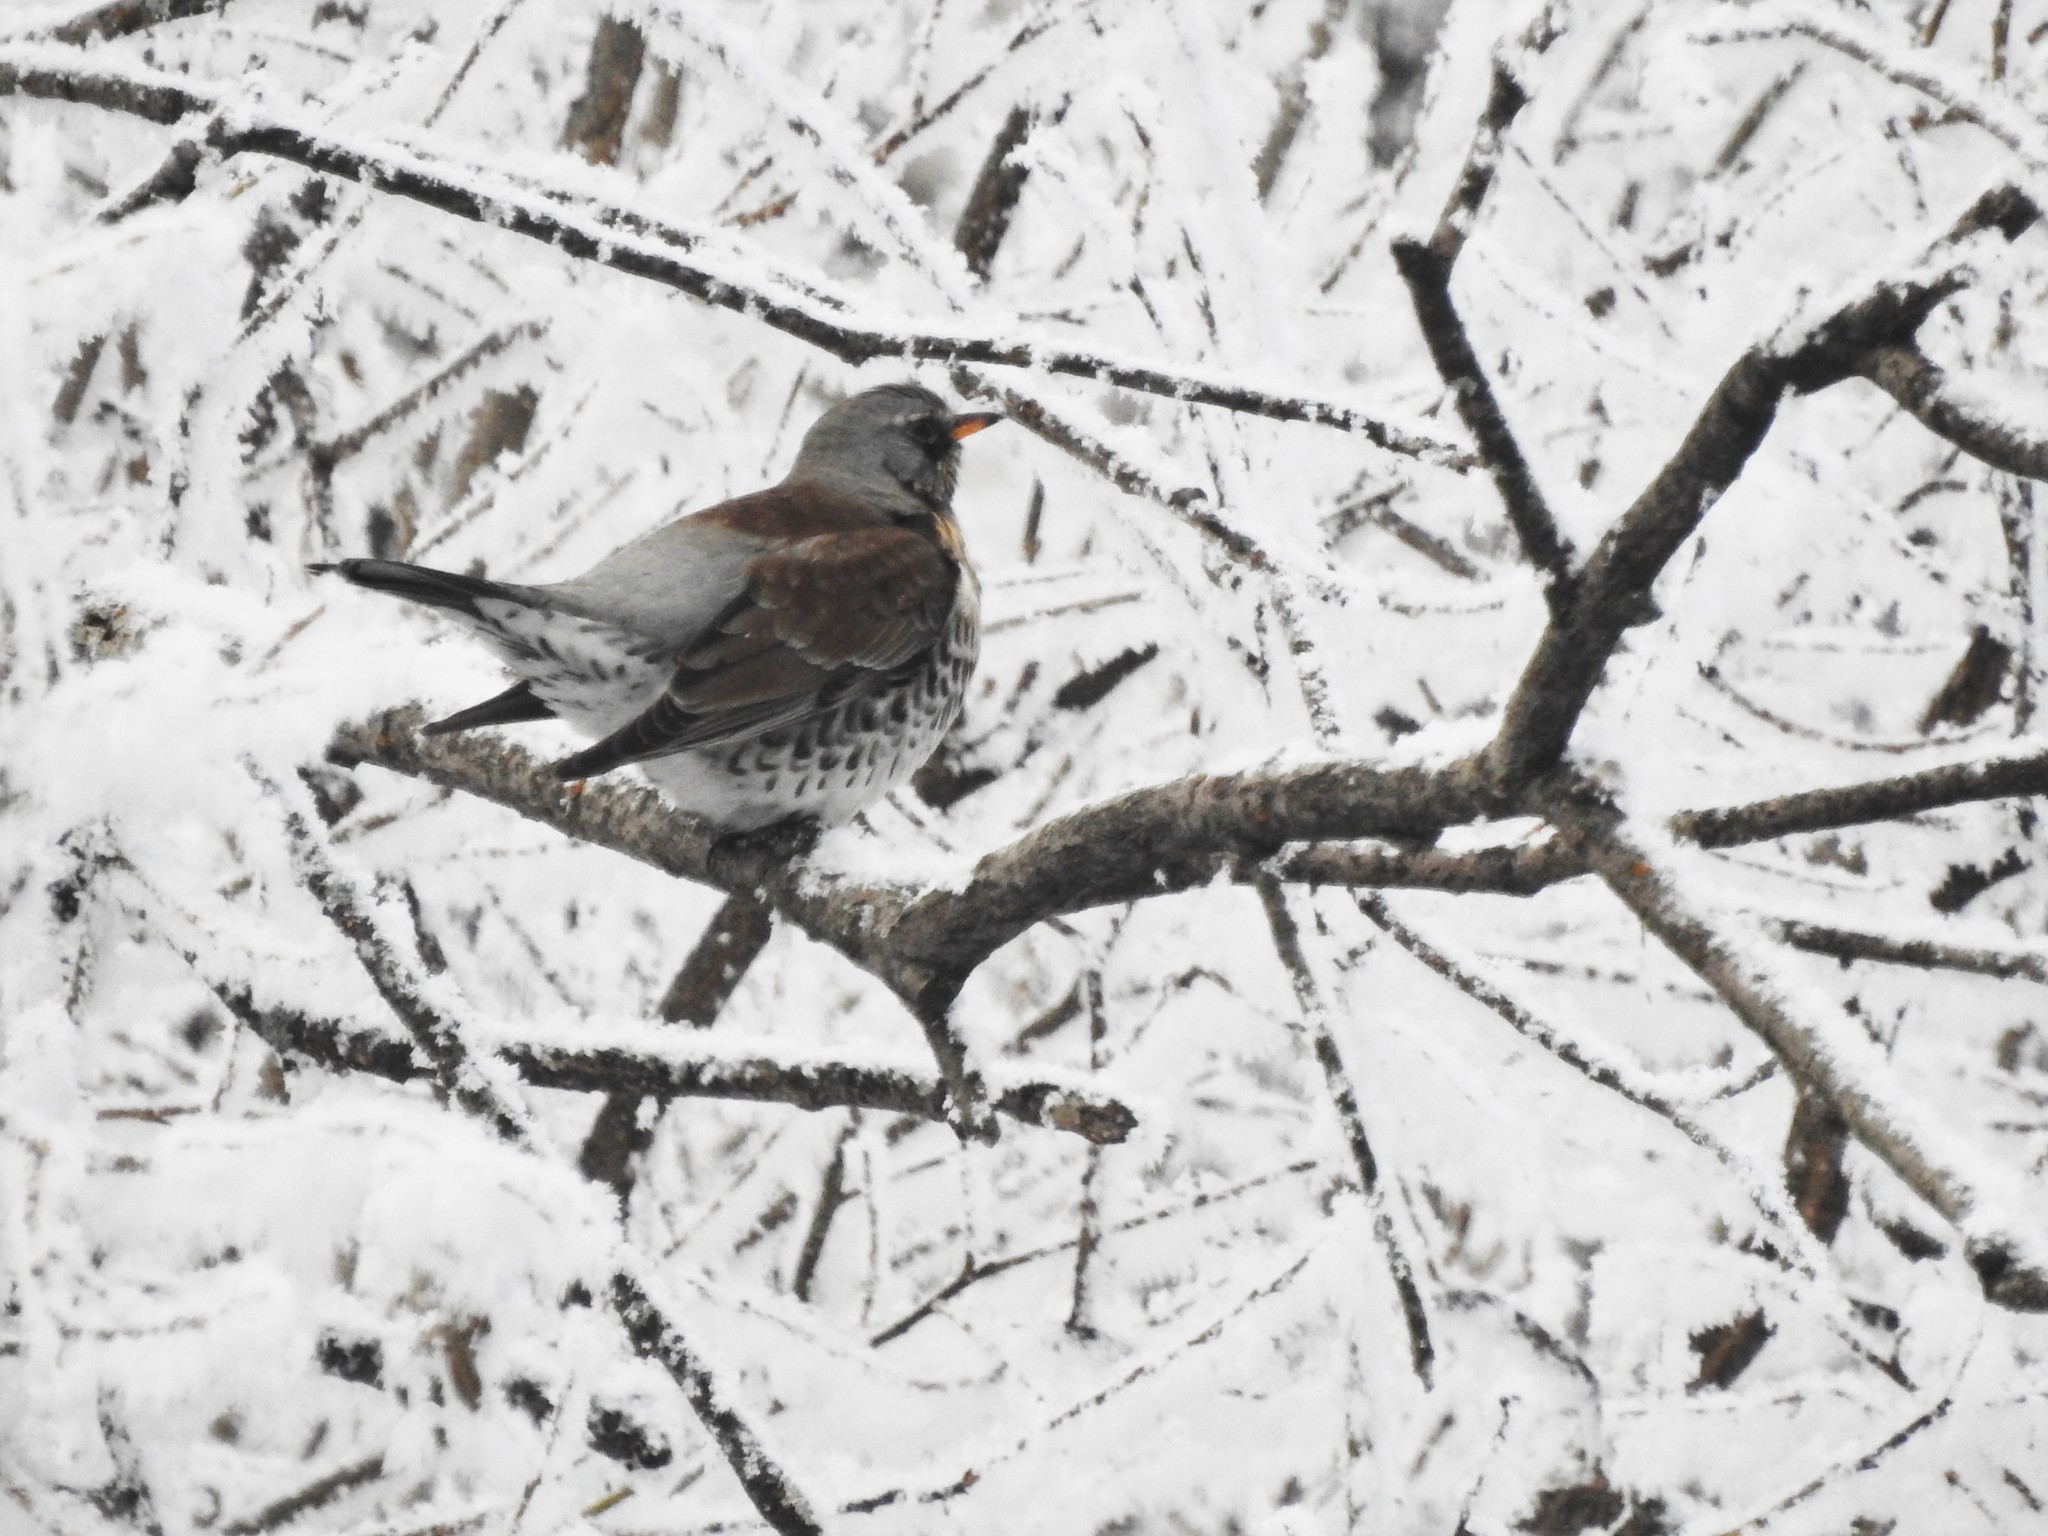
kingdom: Animalia
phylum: Chordata
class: Aves
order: Passeriformes
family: Turdidae
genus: Turdus
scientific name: Turdus pilaris
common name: Fieldfare
